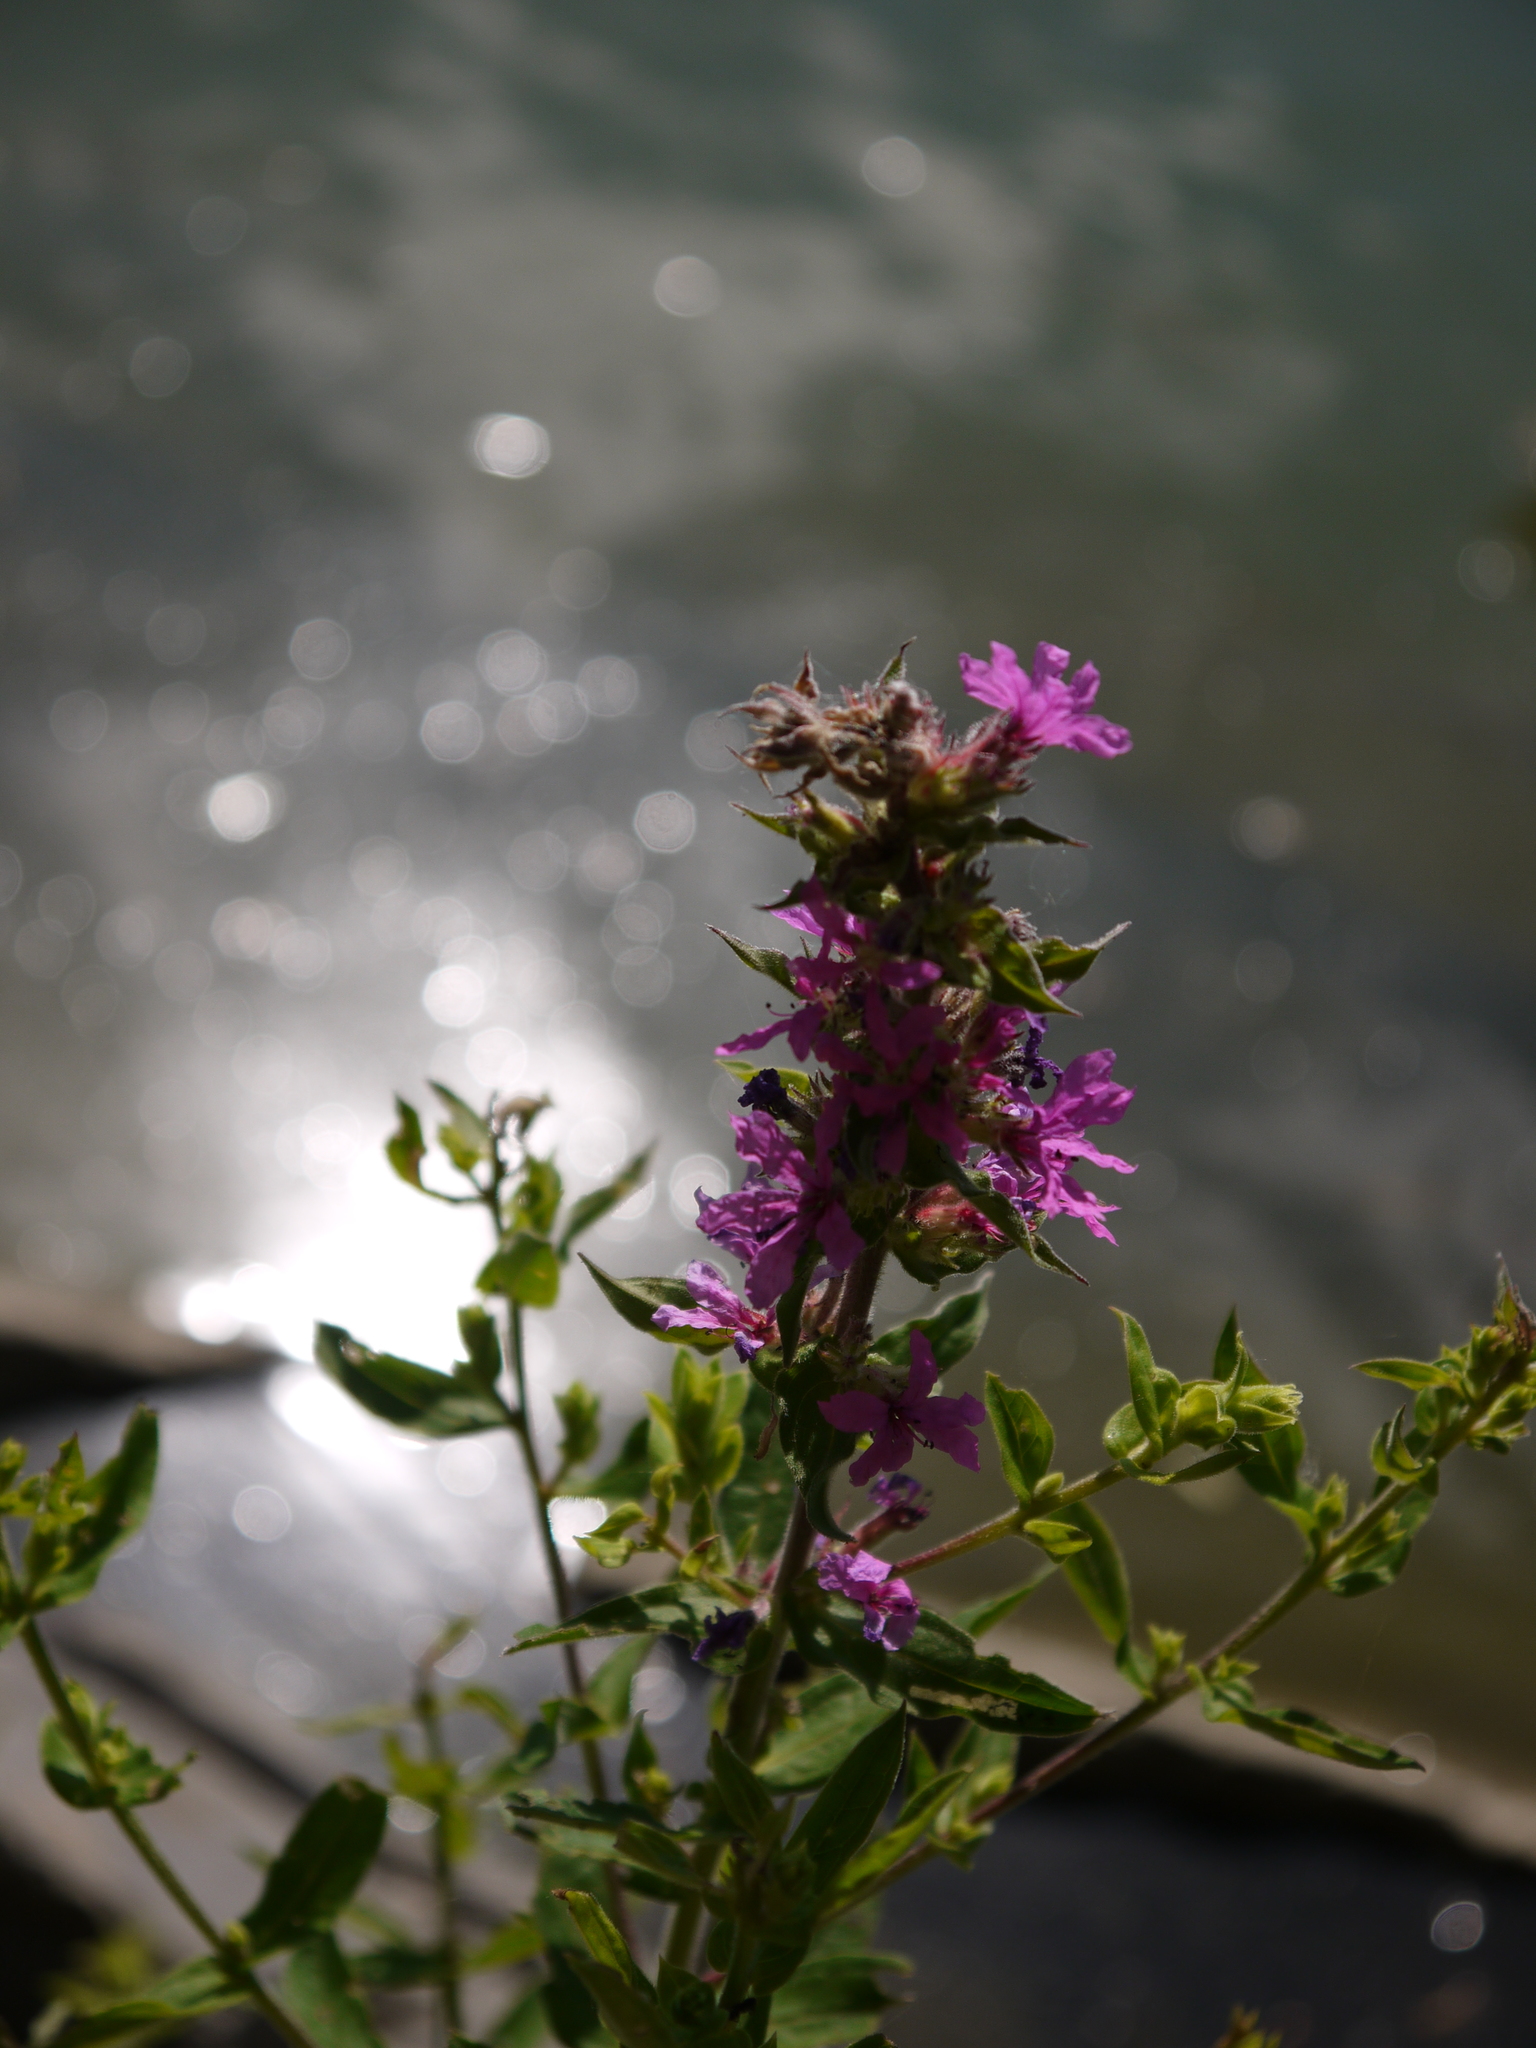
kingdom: Plantae
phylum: Tracheophyta
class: Magnoliopsida
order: Myrtales
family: Lythraceae
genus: Lythrum
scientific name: Lythrum salicaria
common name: Purple loosestrife
